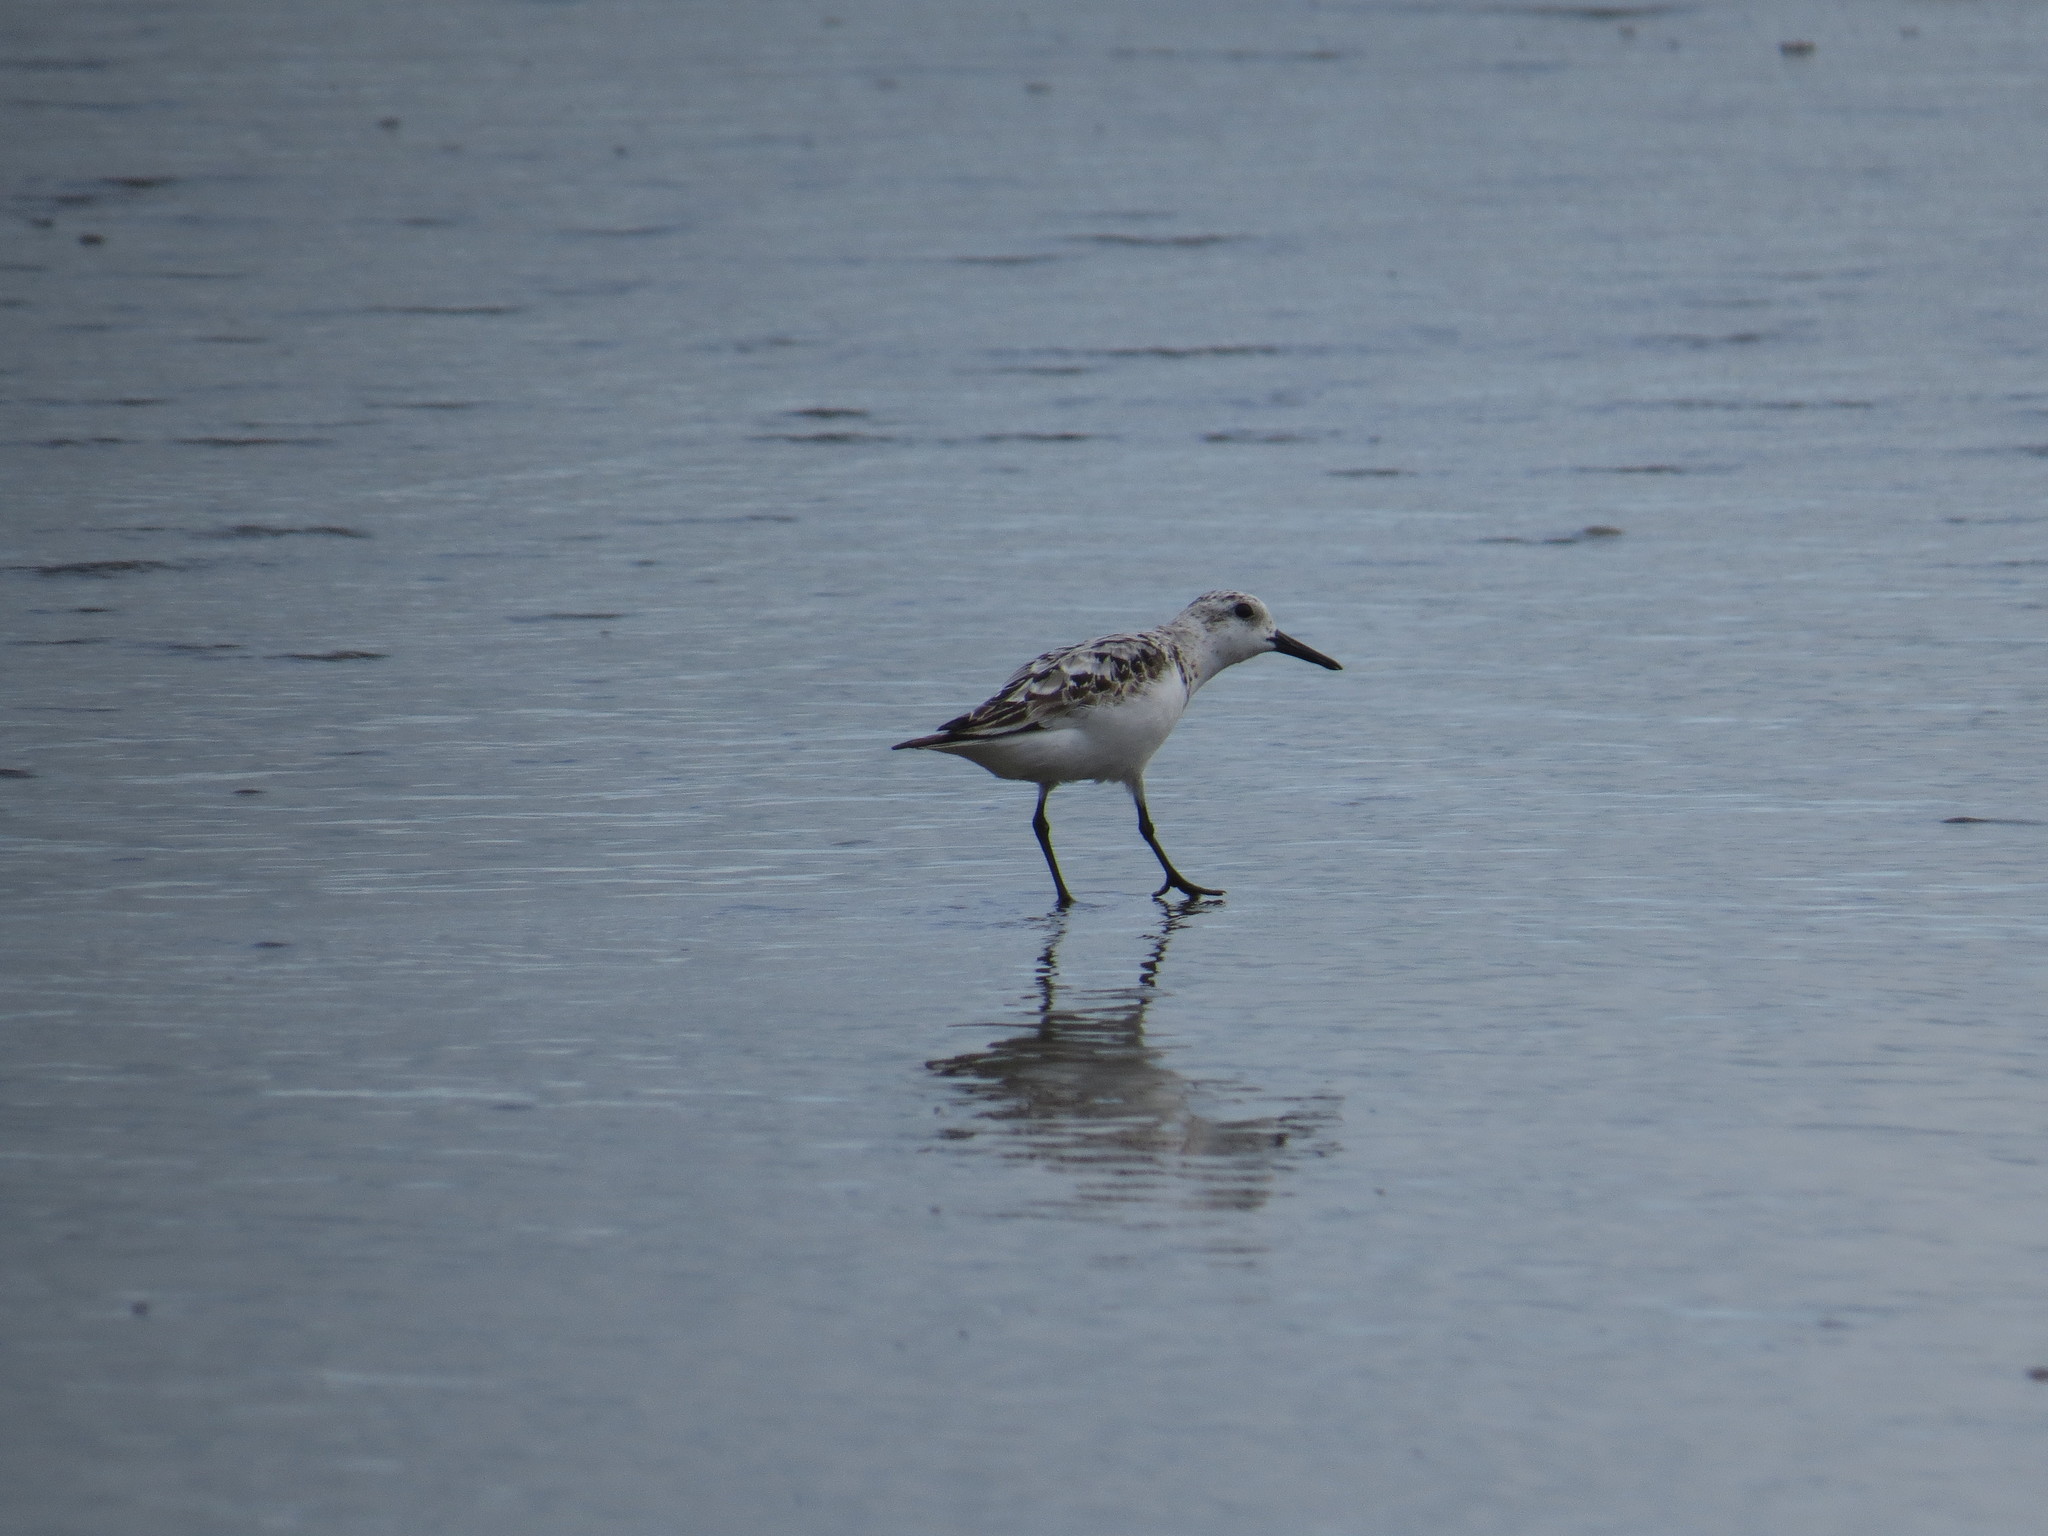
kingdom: Animalia
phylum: Chordata
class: Aves
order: Charadriiformes
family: Scolopacidae
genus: Calidris
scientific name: Calidris alba
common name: Sanderling
